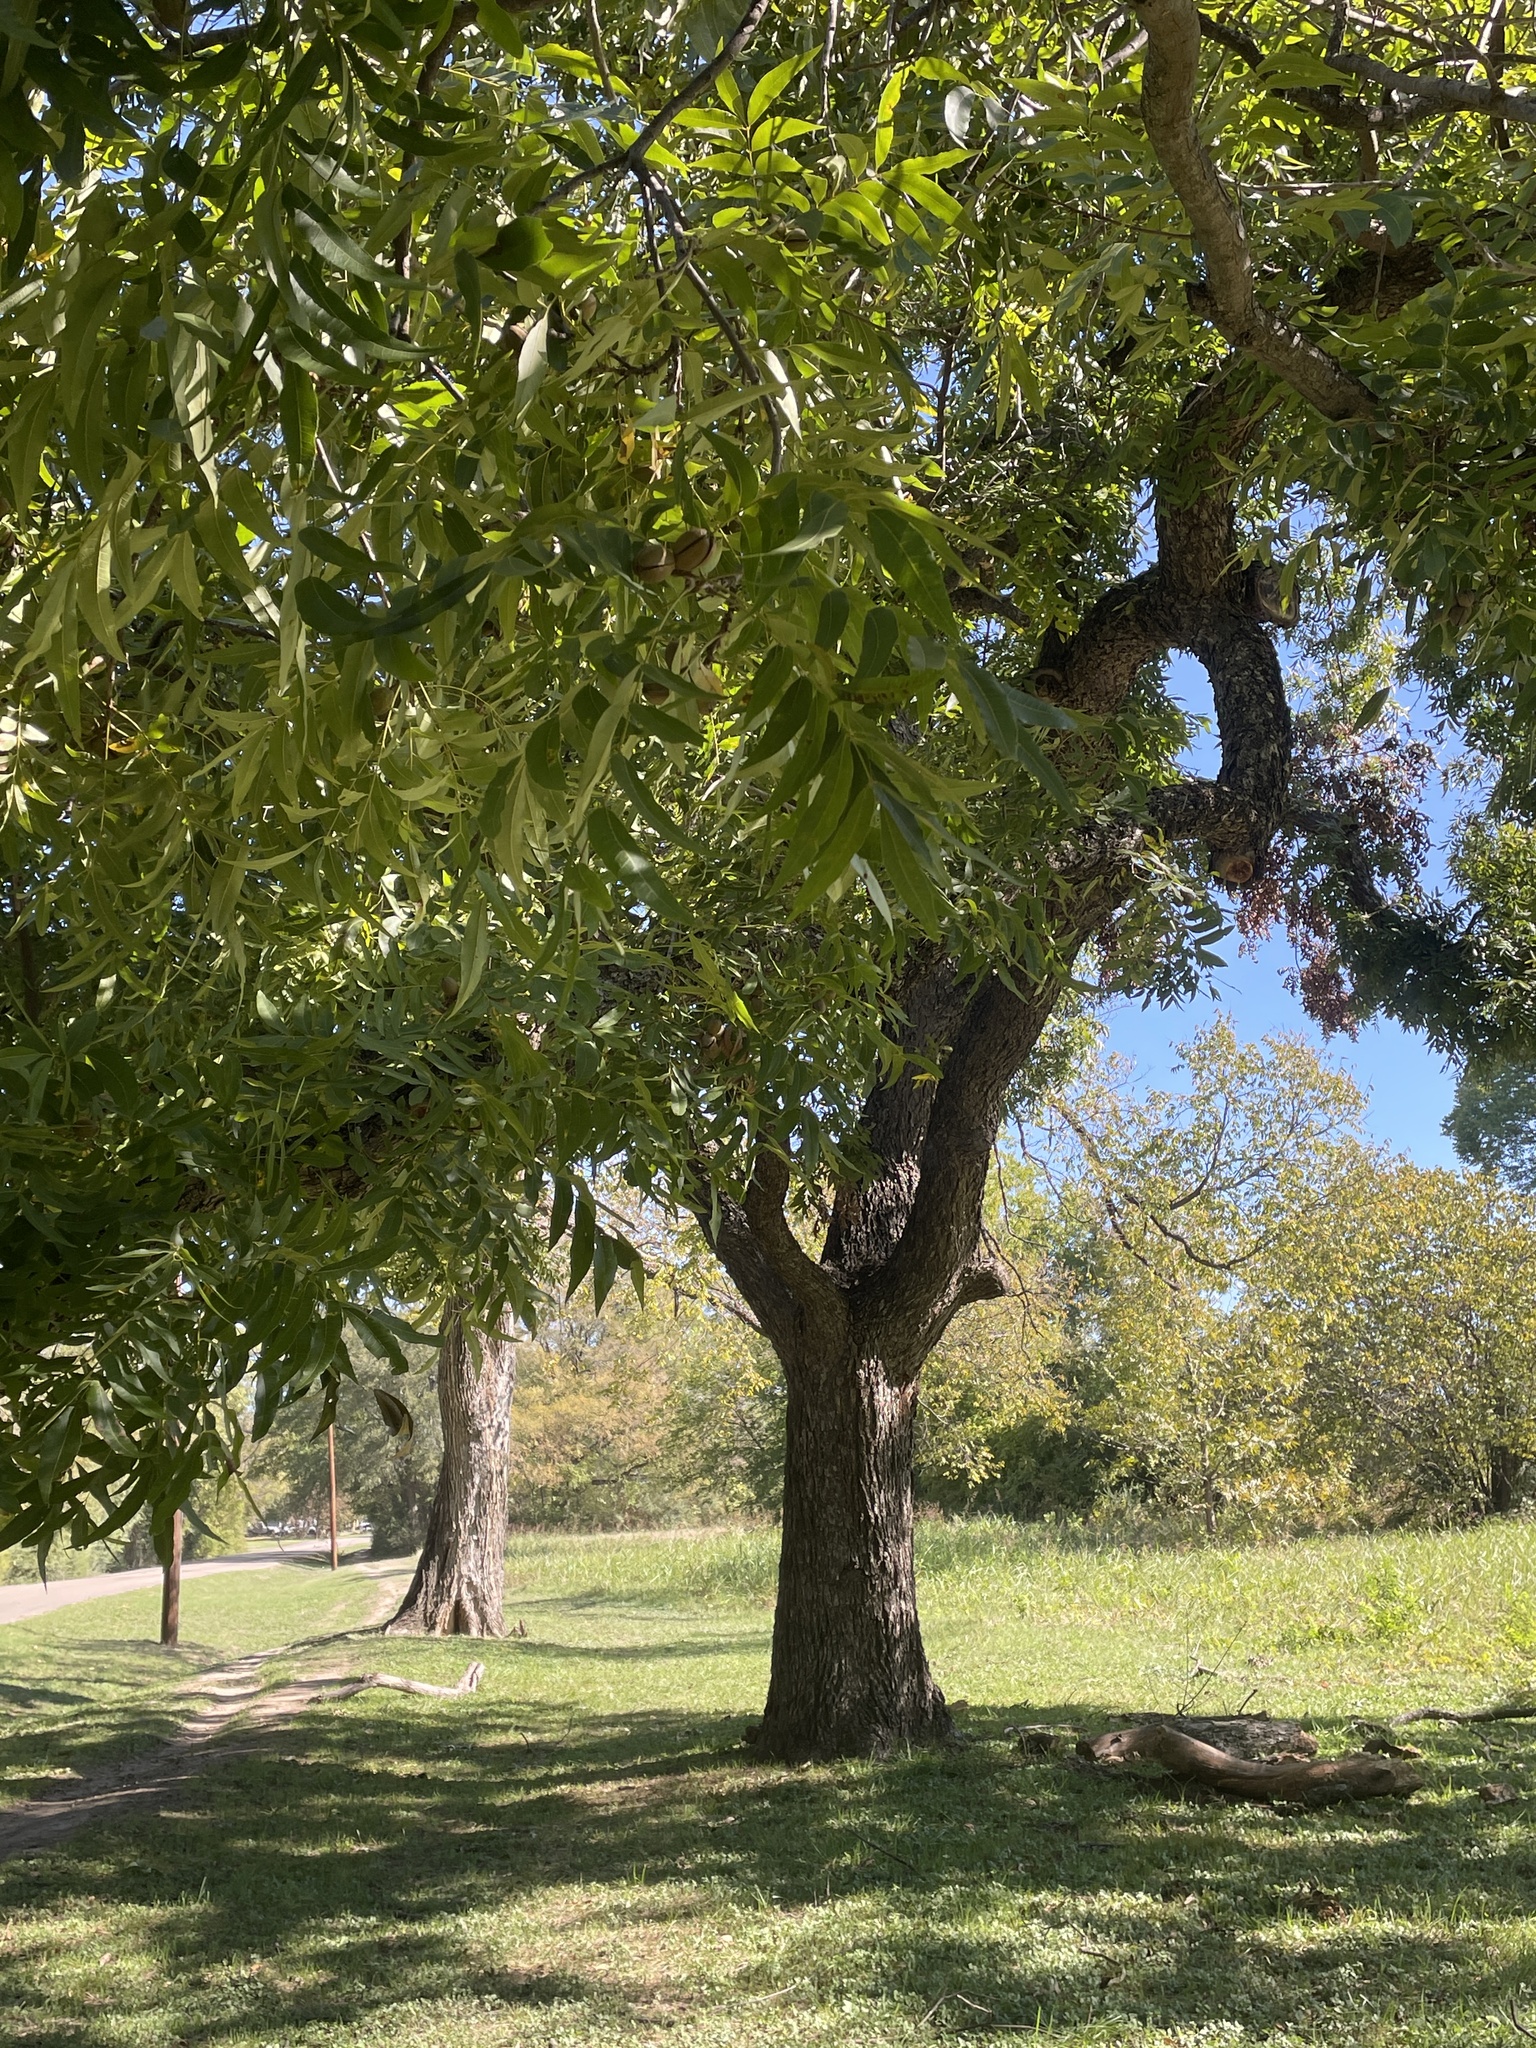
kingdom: Plantae
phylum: Tracheophyta
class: Magnoliopsida
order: Fagales
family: Juglandaceae
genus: Carya
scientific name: Carya illinoinensis
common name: Pecan
